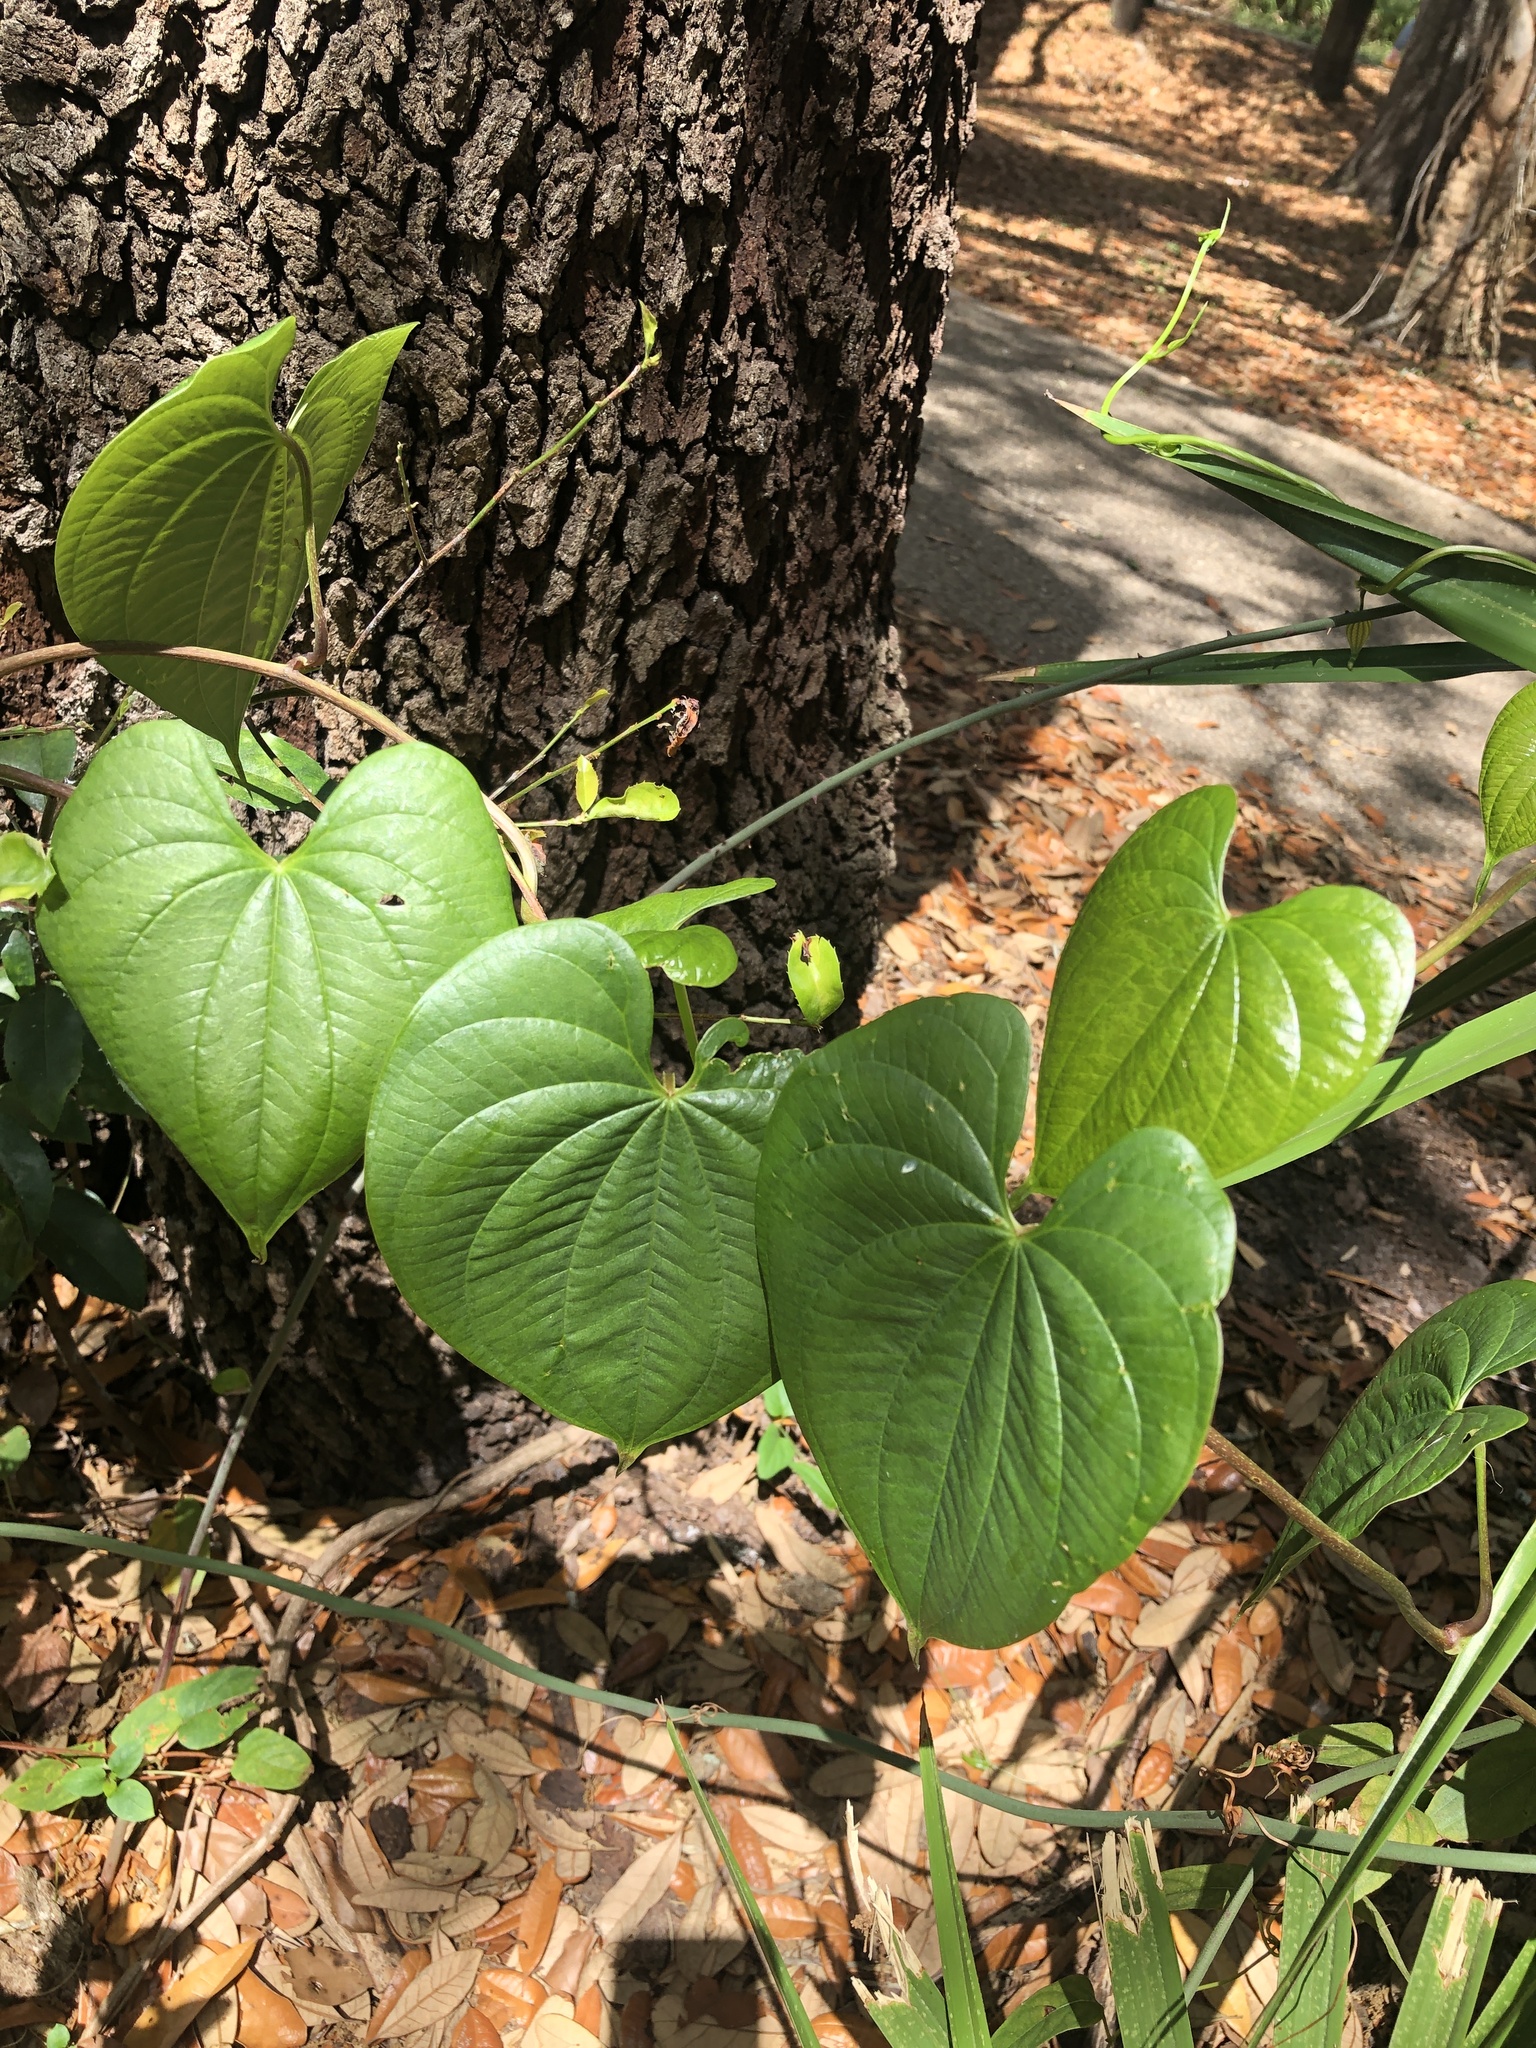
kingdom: Plantae
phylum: Tracheophyta
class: Liliopsida
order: Dioscoreales
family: Dioscoreaceae
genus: Dioscorea
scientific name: Dioscorea bulbifera
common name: Air yam
